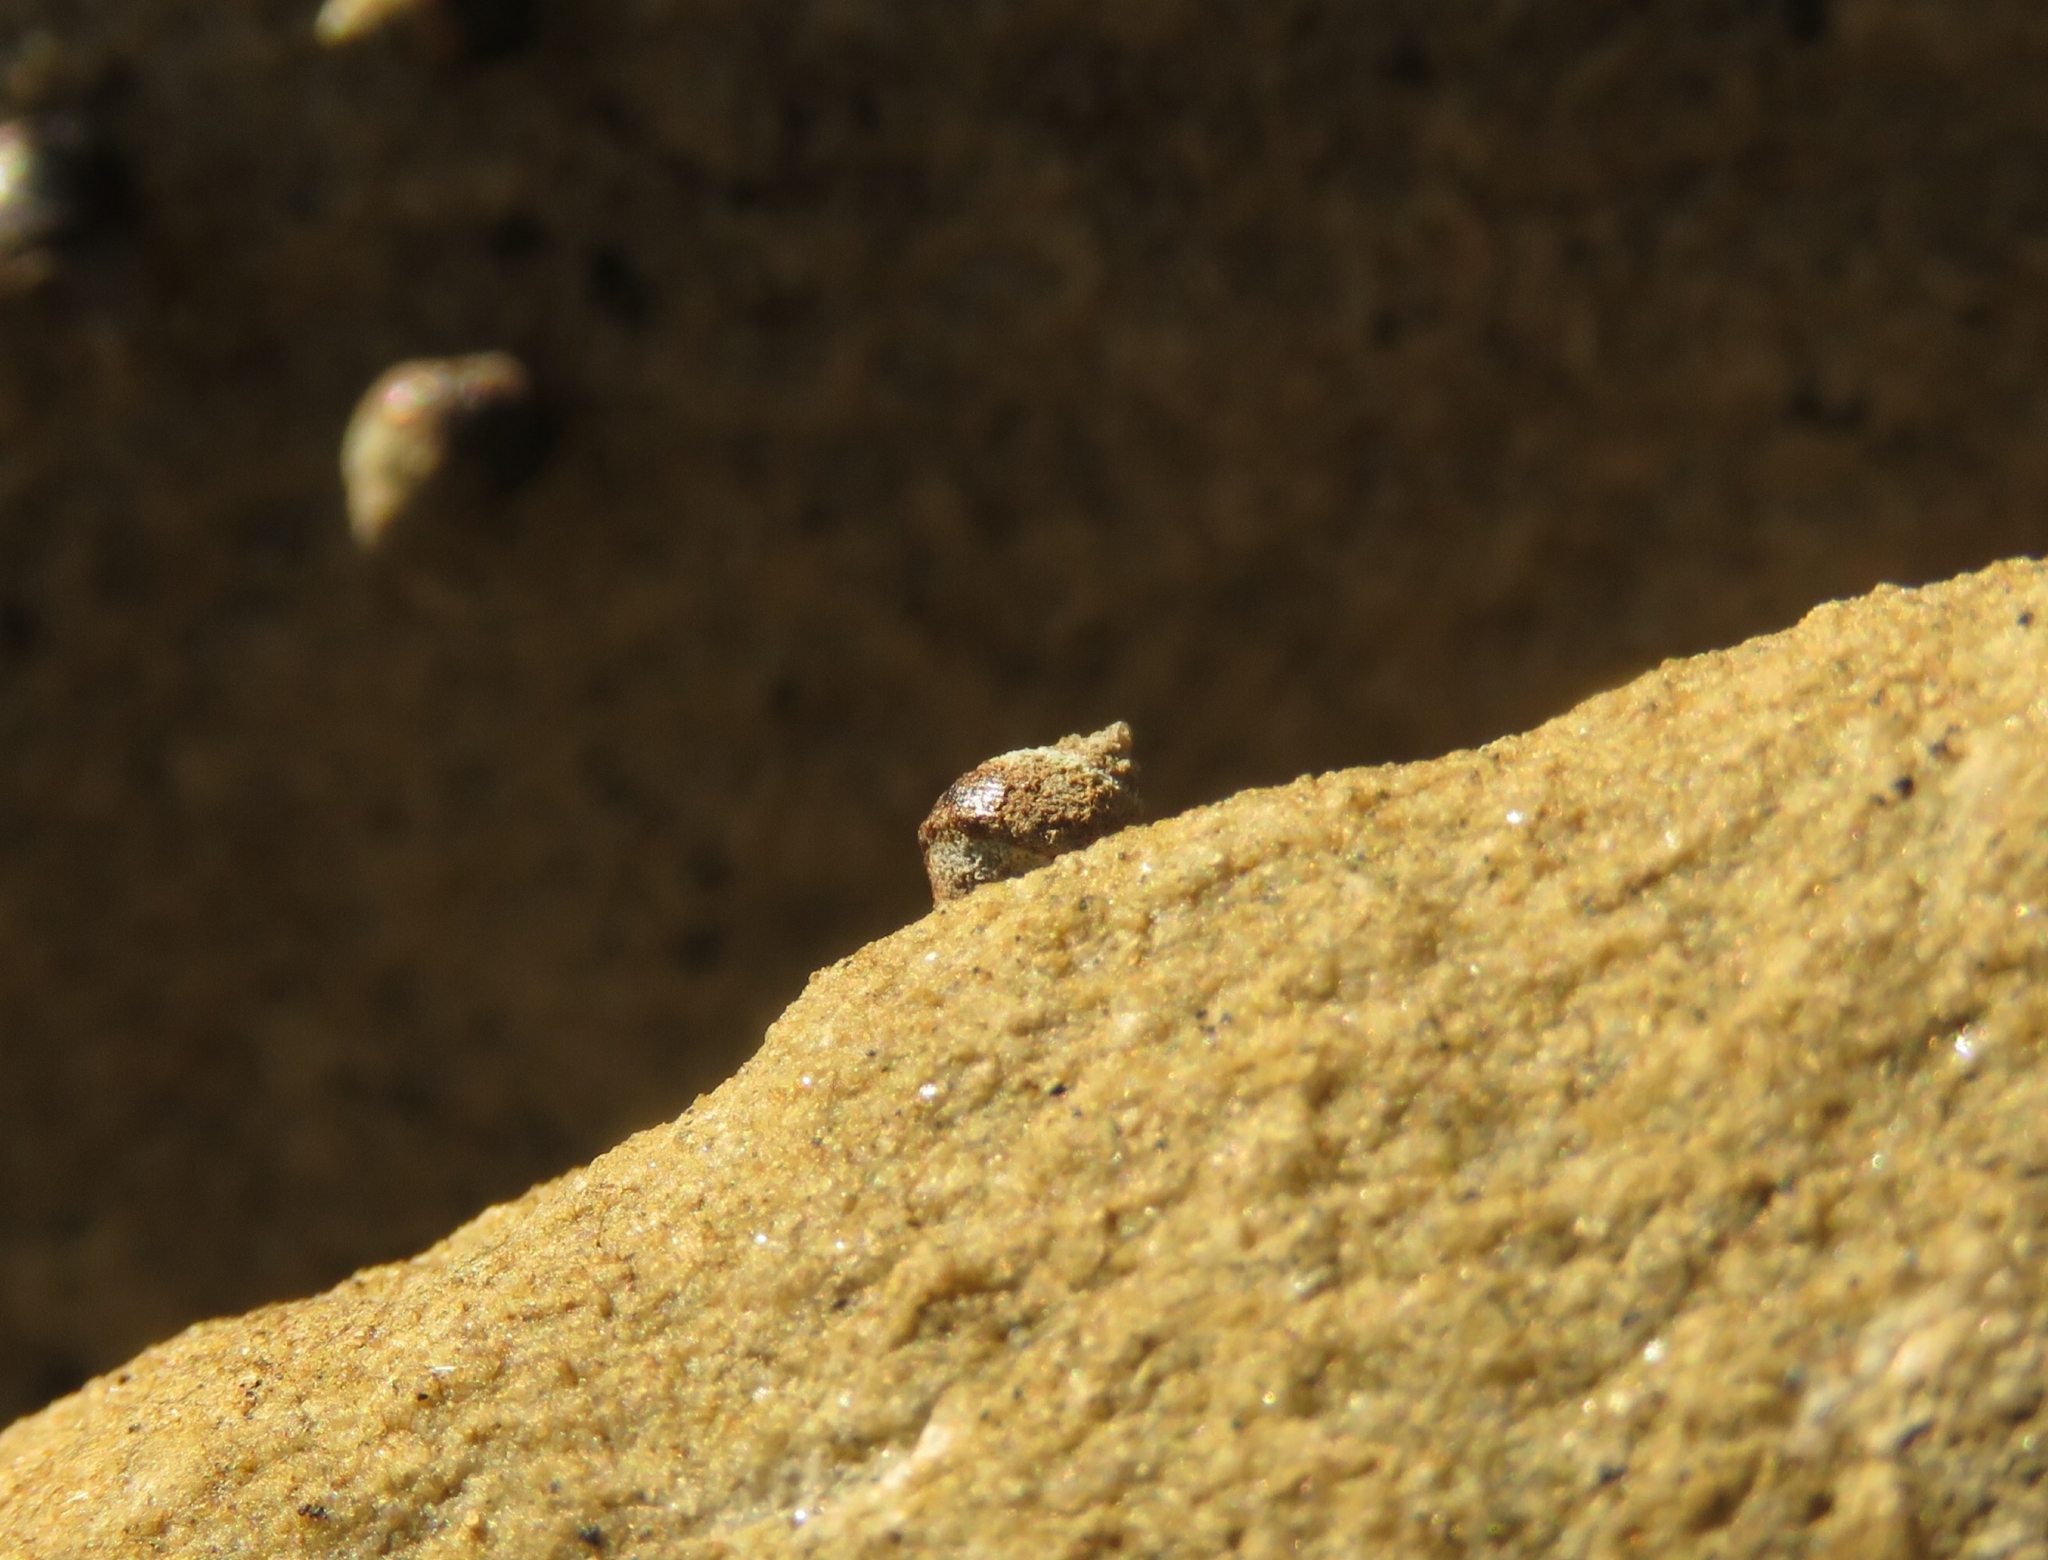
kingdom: Animalia
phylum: Mollusca
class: Gastropoda
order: Littorinimorpha
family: Littorinidae
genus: Afrolittorina
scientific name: Afrolittorina knysnaensis
